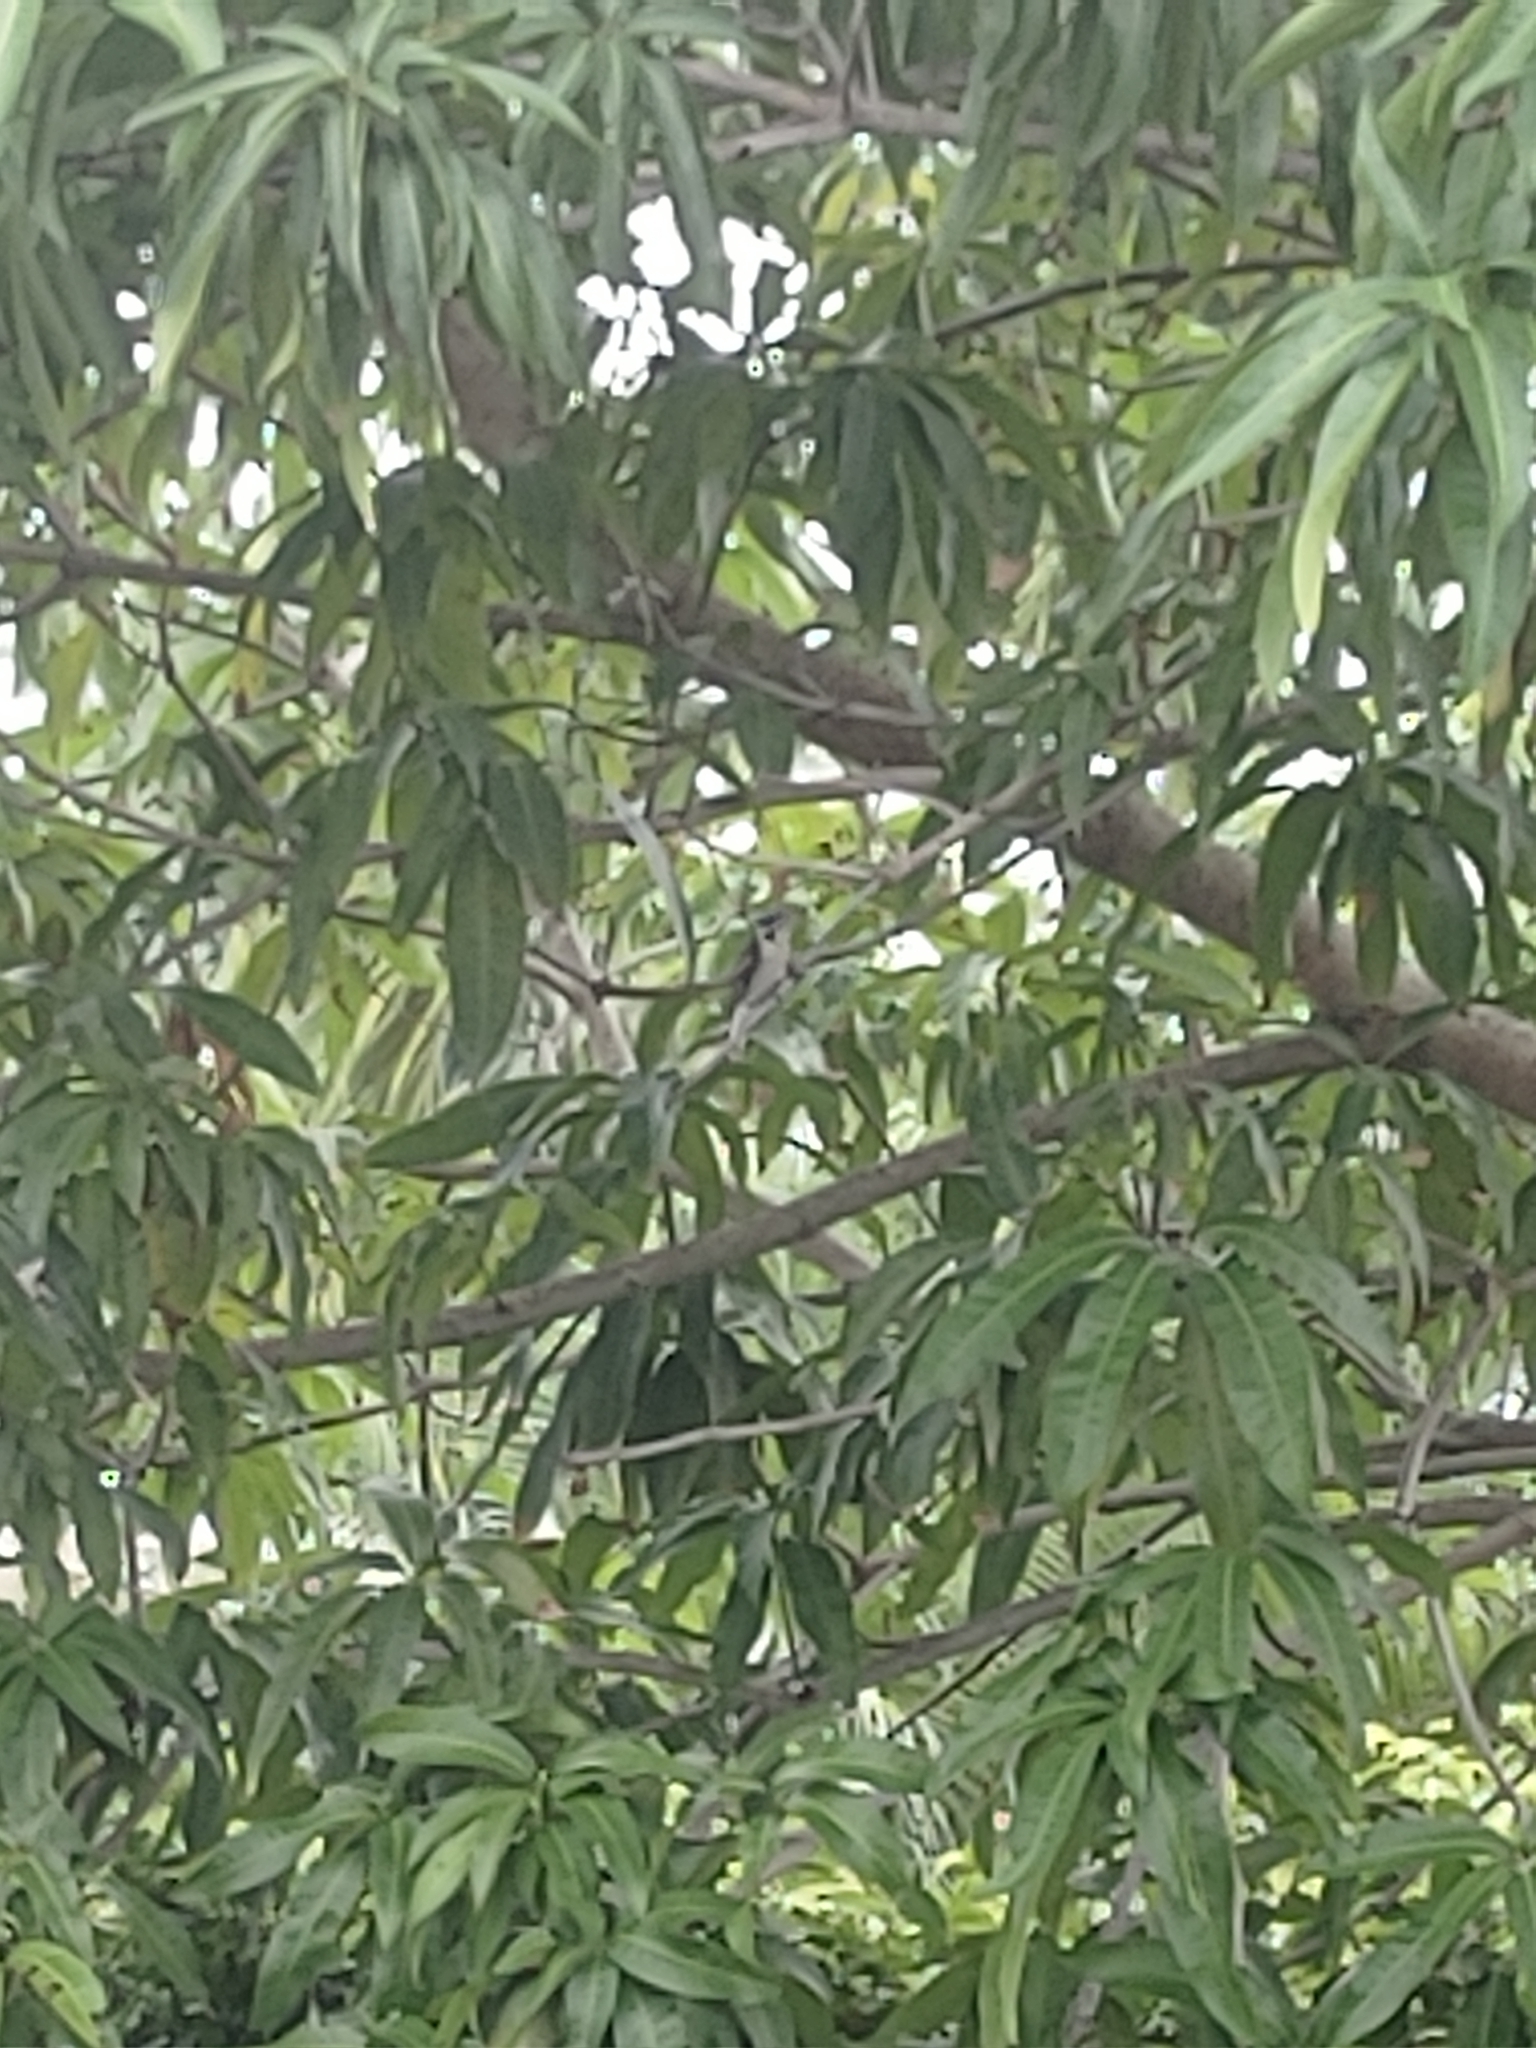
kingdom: Animalia
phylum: Chordata
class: Aves
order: Piciformes
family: Picidae
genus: Dryobates
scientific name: Dryobates pubescens
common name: Downy woodpecker
